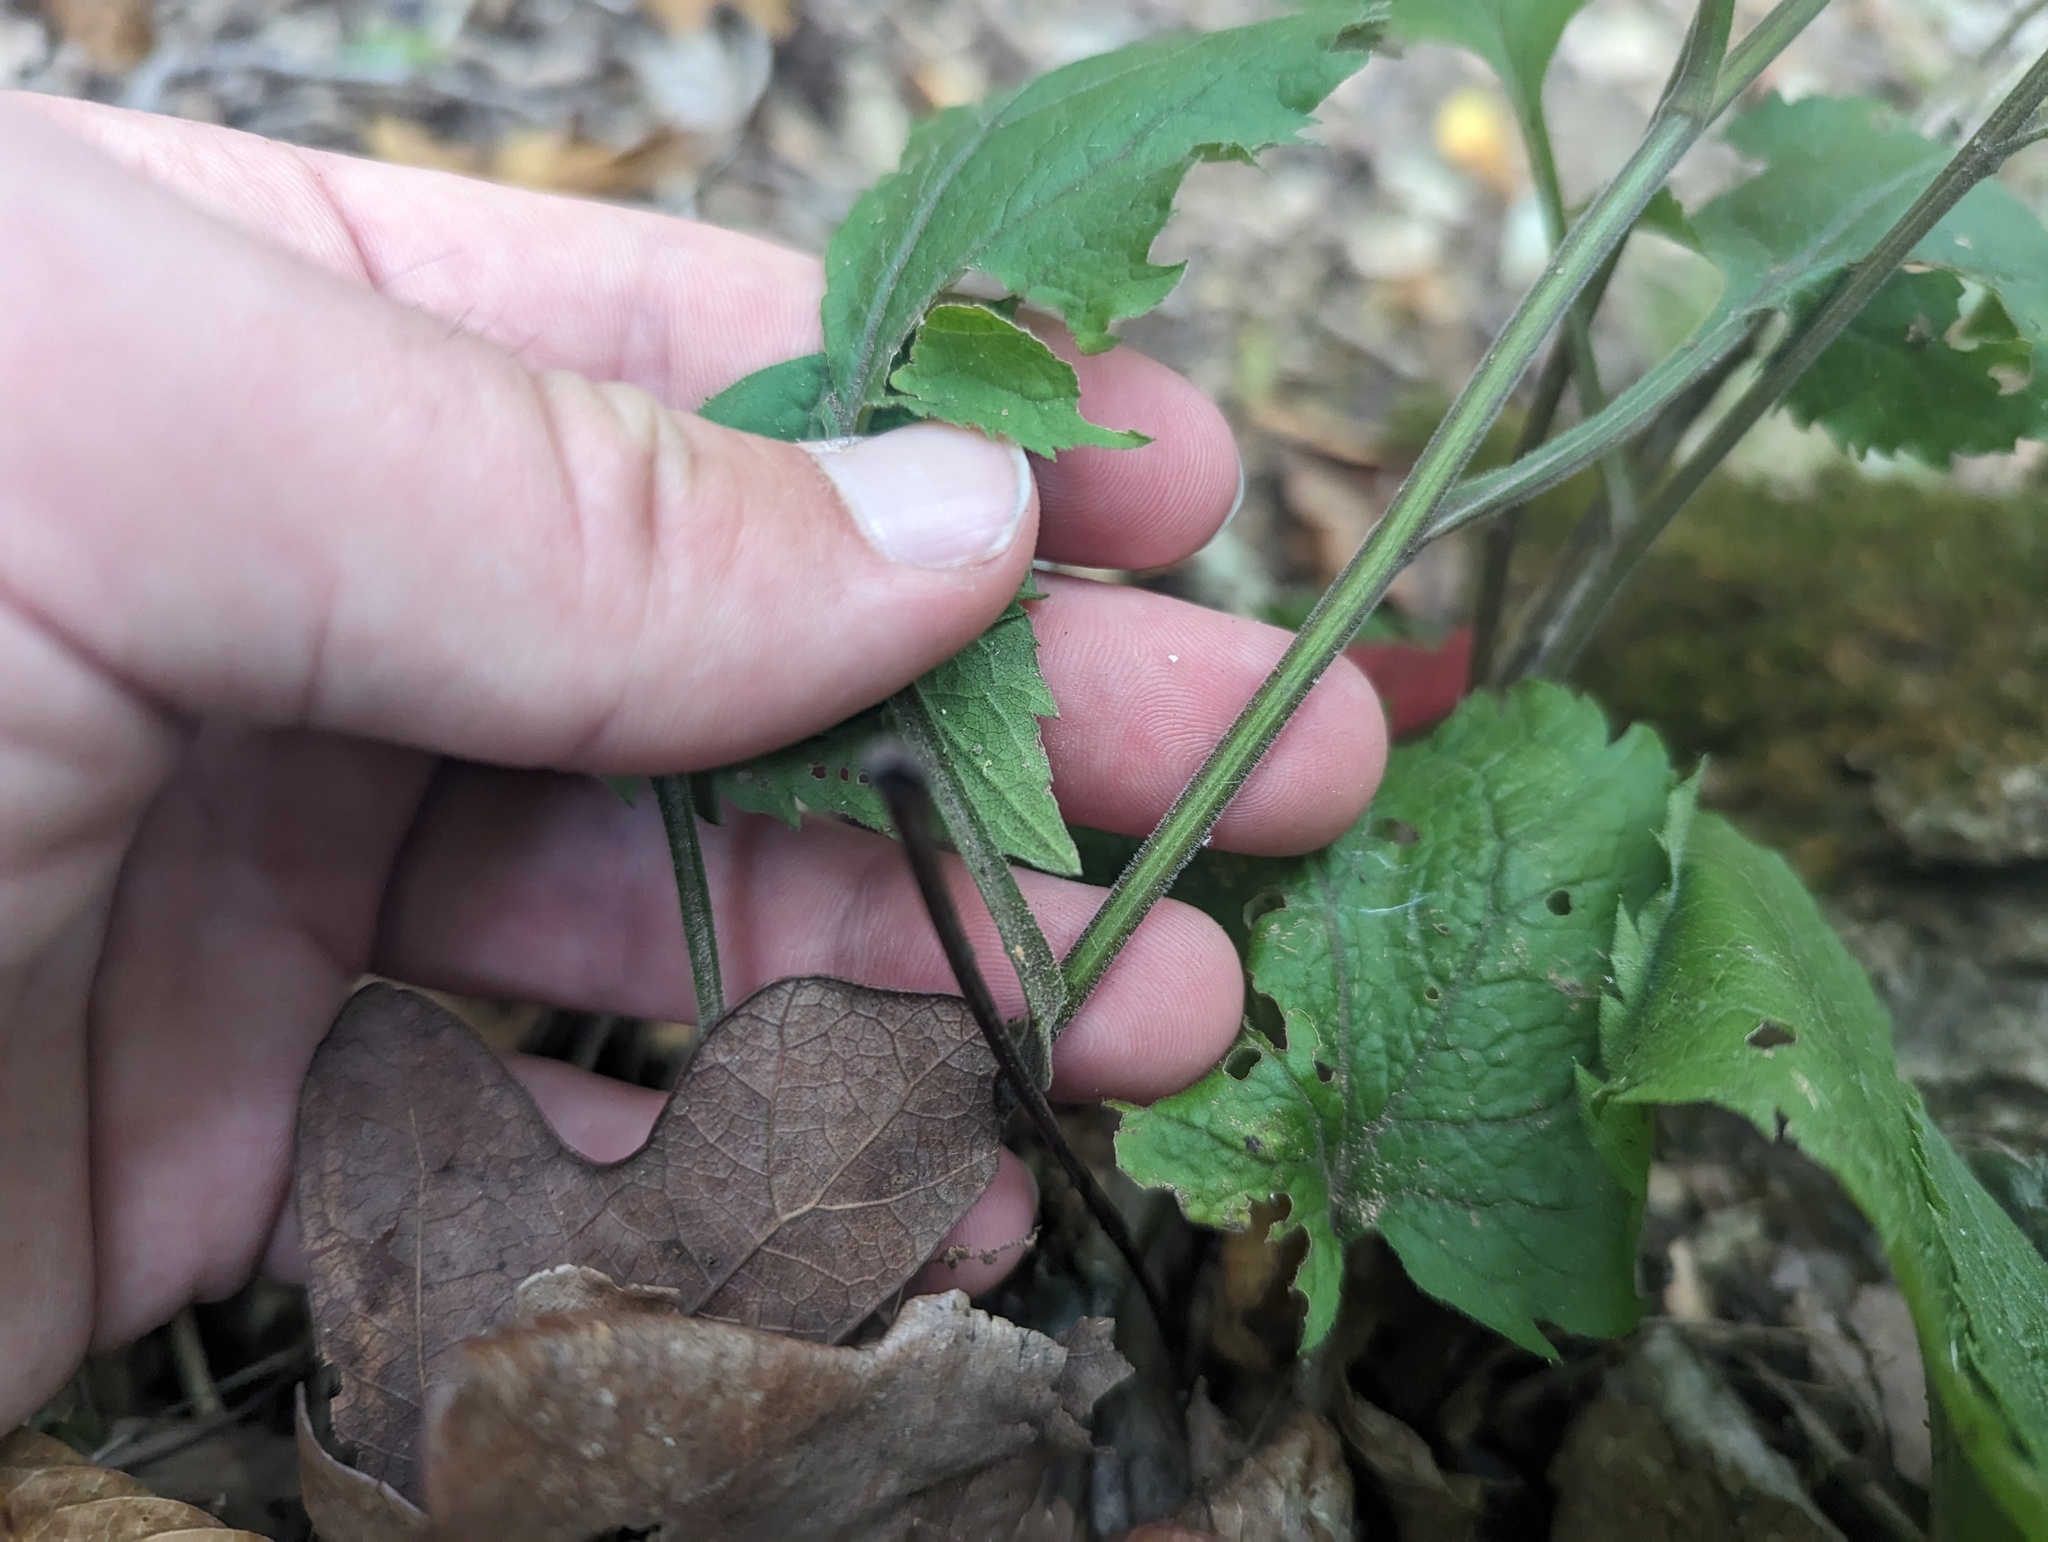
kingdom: Plantae
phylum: Tracheophyta
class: Magnoliopsida
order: Asterales
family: Asteraceae
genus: Solidago
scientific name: Solidago sphacelata
